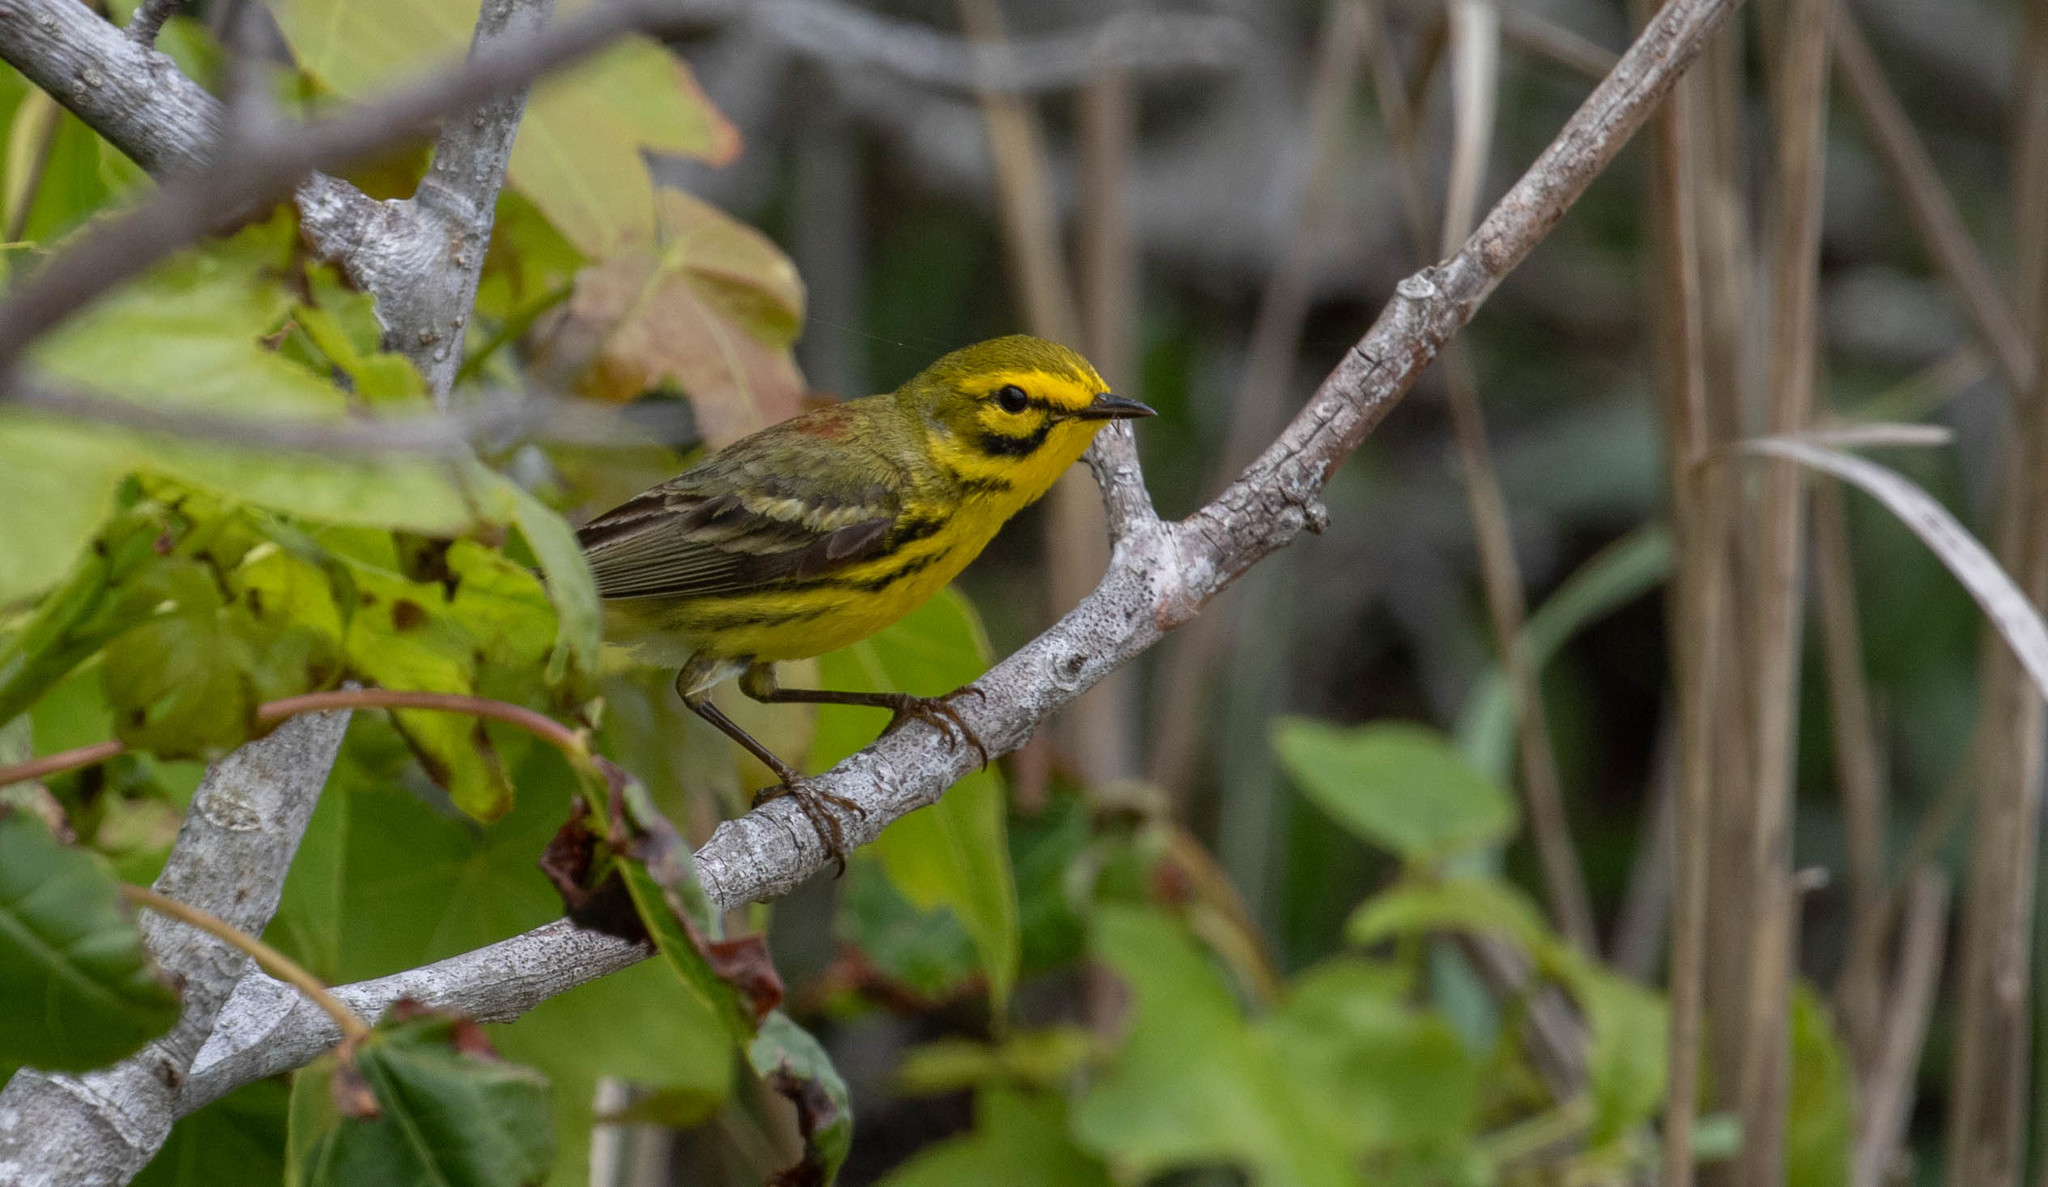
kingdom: Animalia
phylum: Chordata
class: Aves
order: Passeriformes
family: Parulidae
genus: Setophaga
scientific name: Setophaga discolor
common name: Prairie warbler
